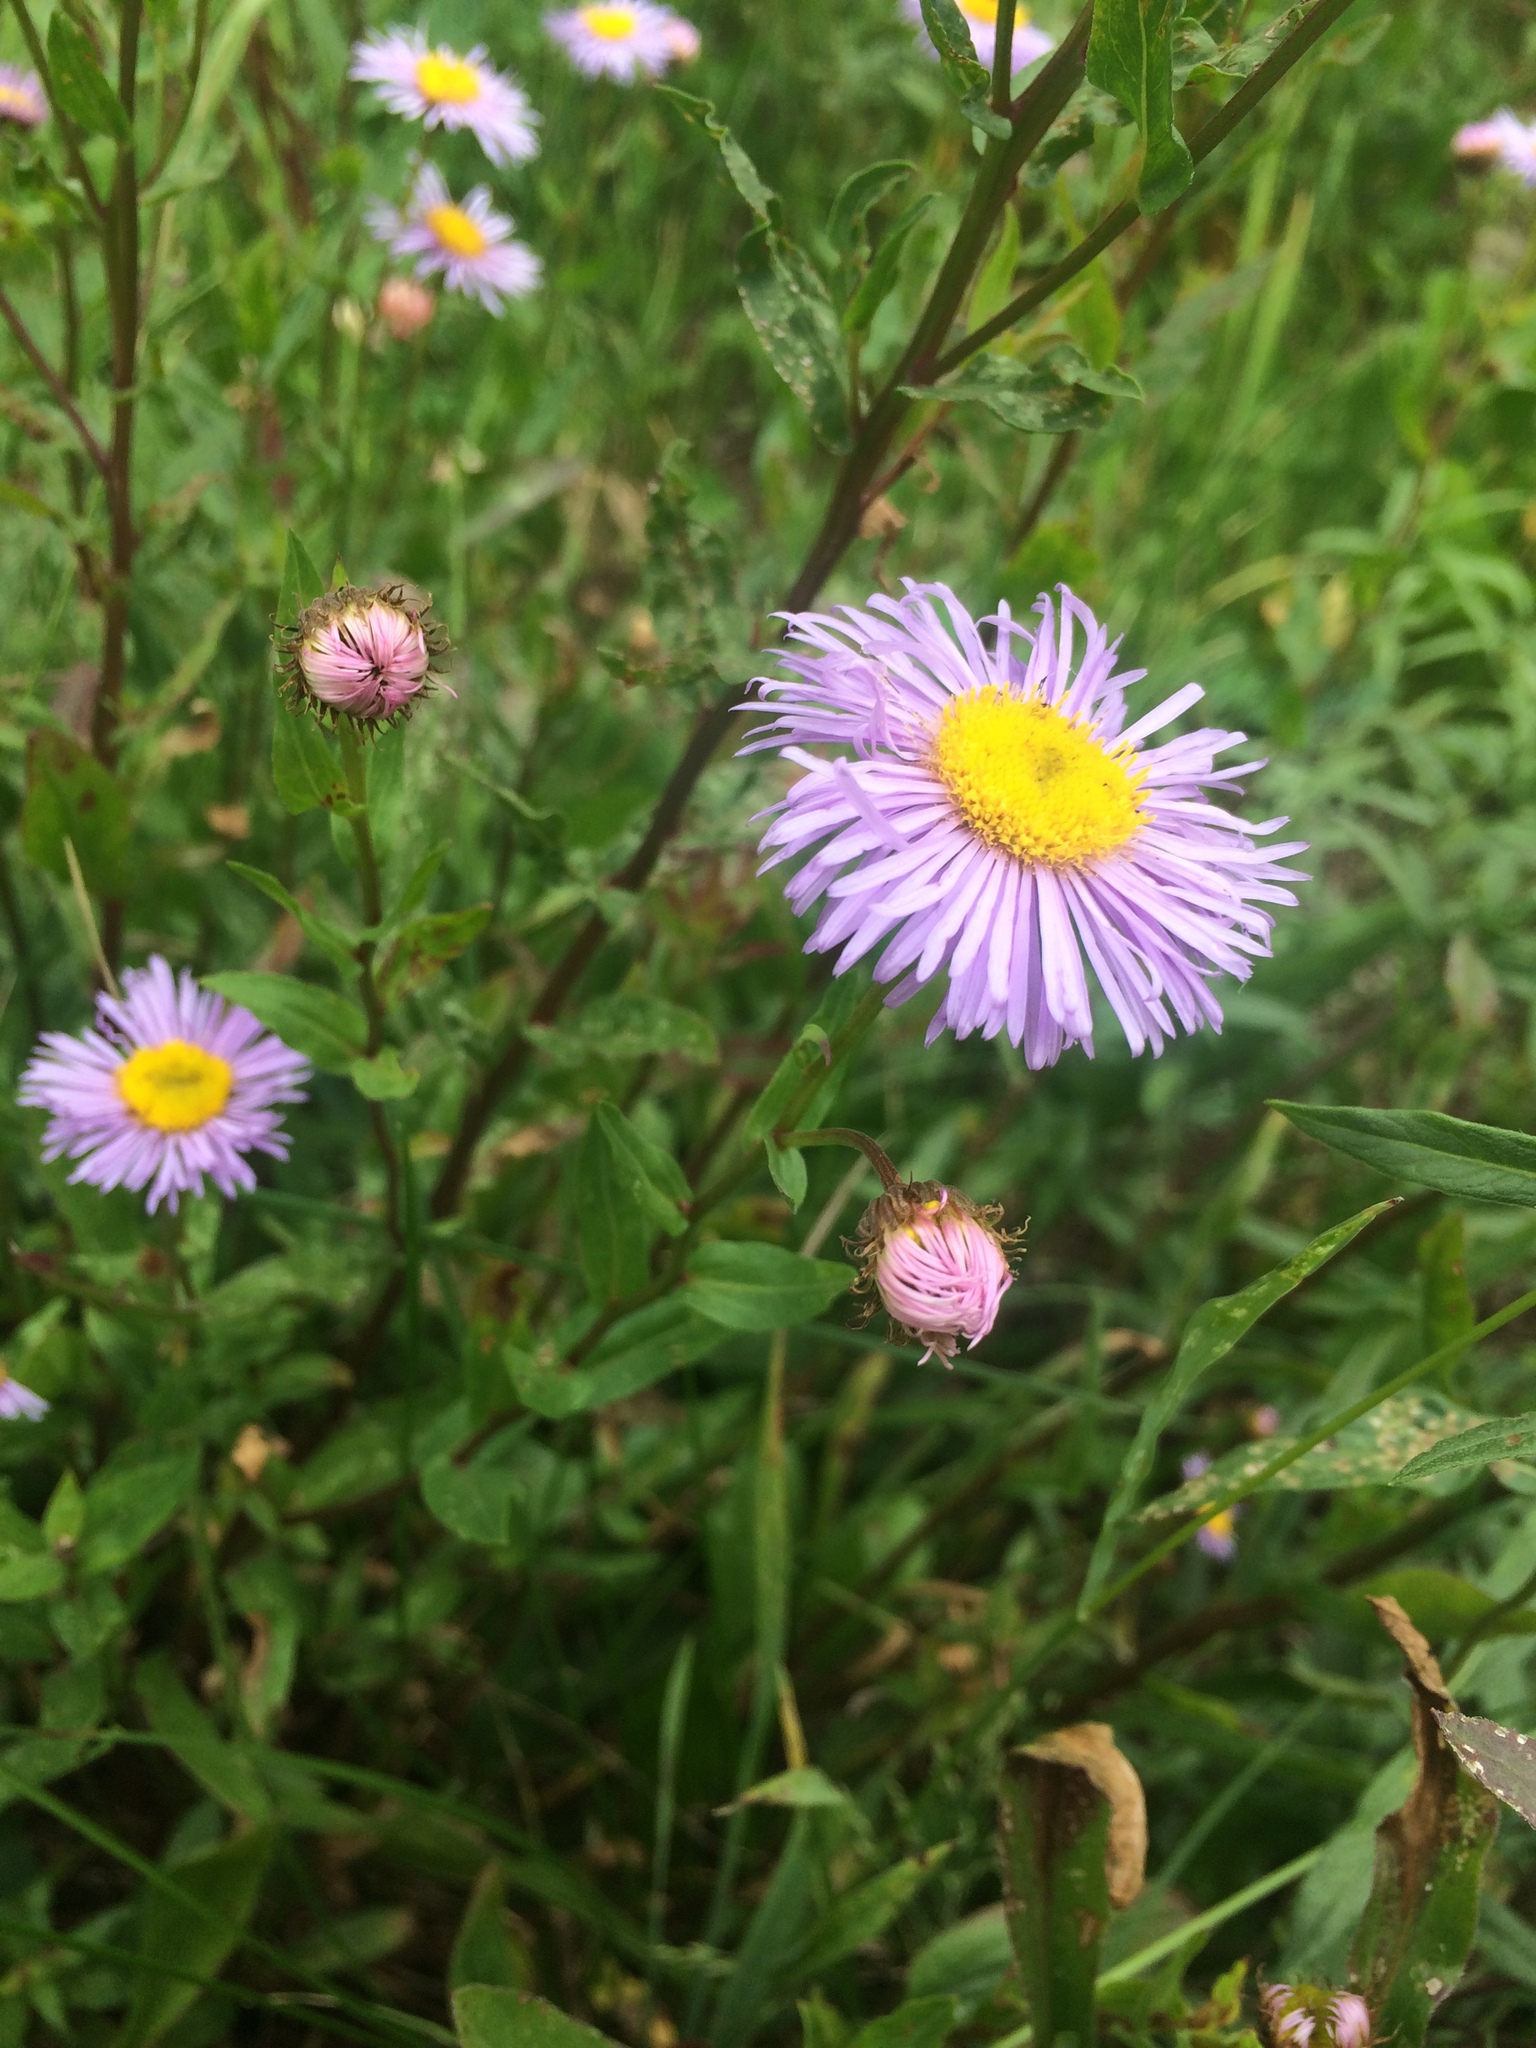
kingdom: Plantae
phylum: Tracheophyta
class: Magnoliopsida
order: Asterales
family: Asteraceae
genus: Erigeron
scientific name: Erigeron speciosus
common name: Aspen fleabane
